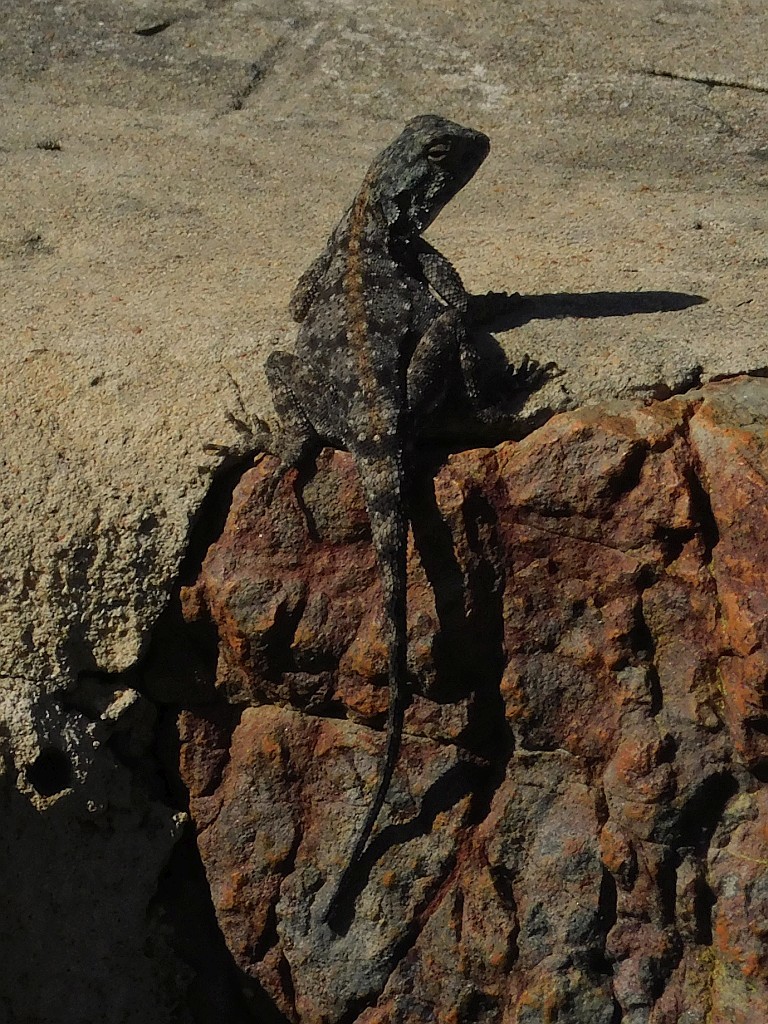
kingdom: Animalia
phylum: Chordata
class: Squamata
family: Agamidae
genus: Agama
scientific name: Agama atra
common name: Southern african rock agama
